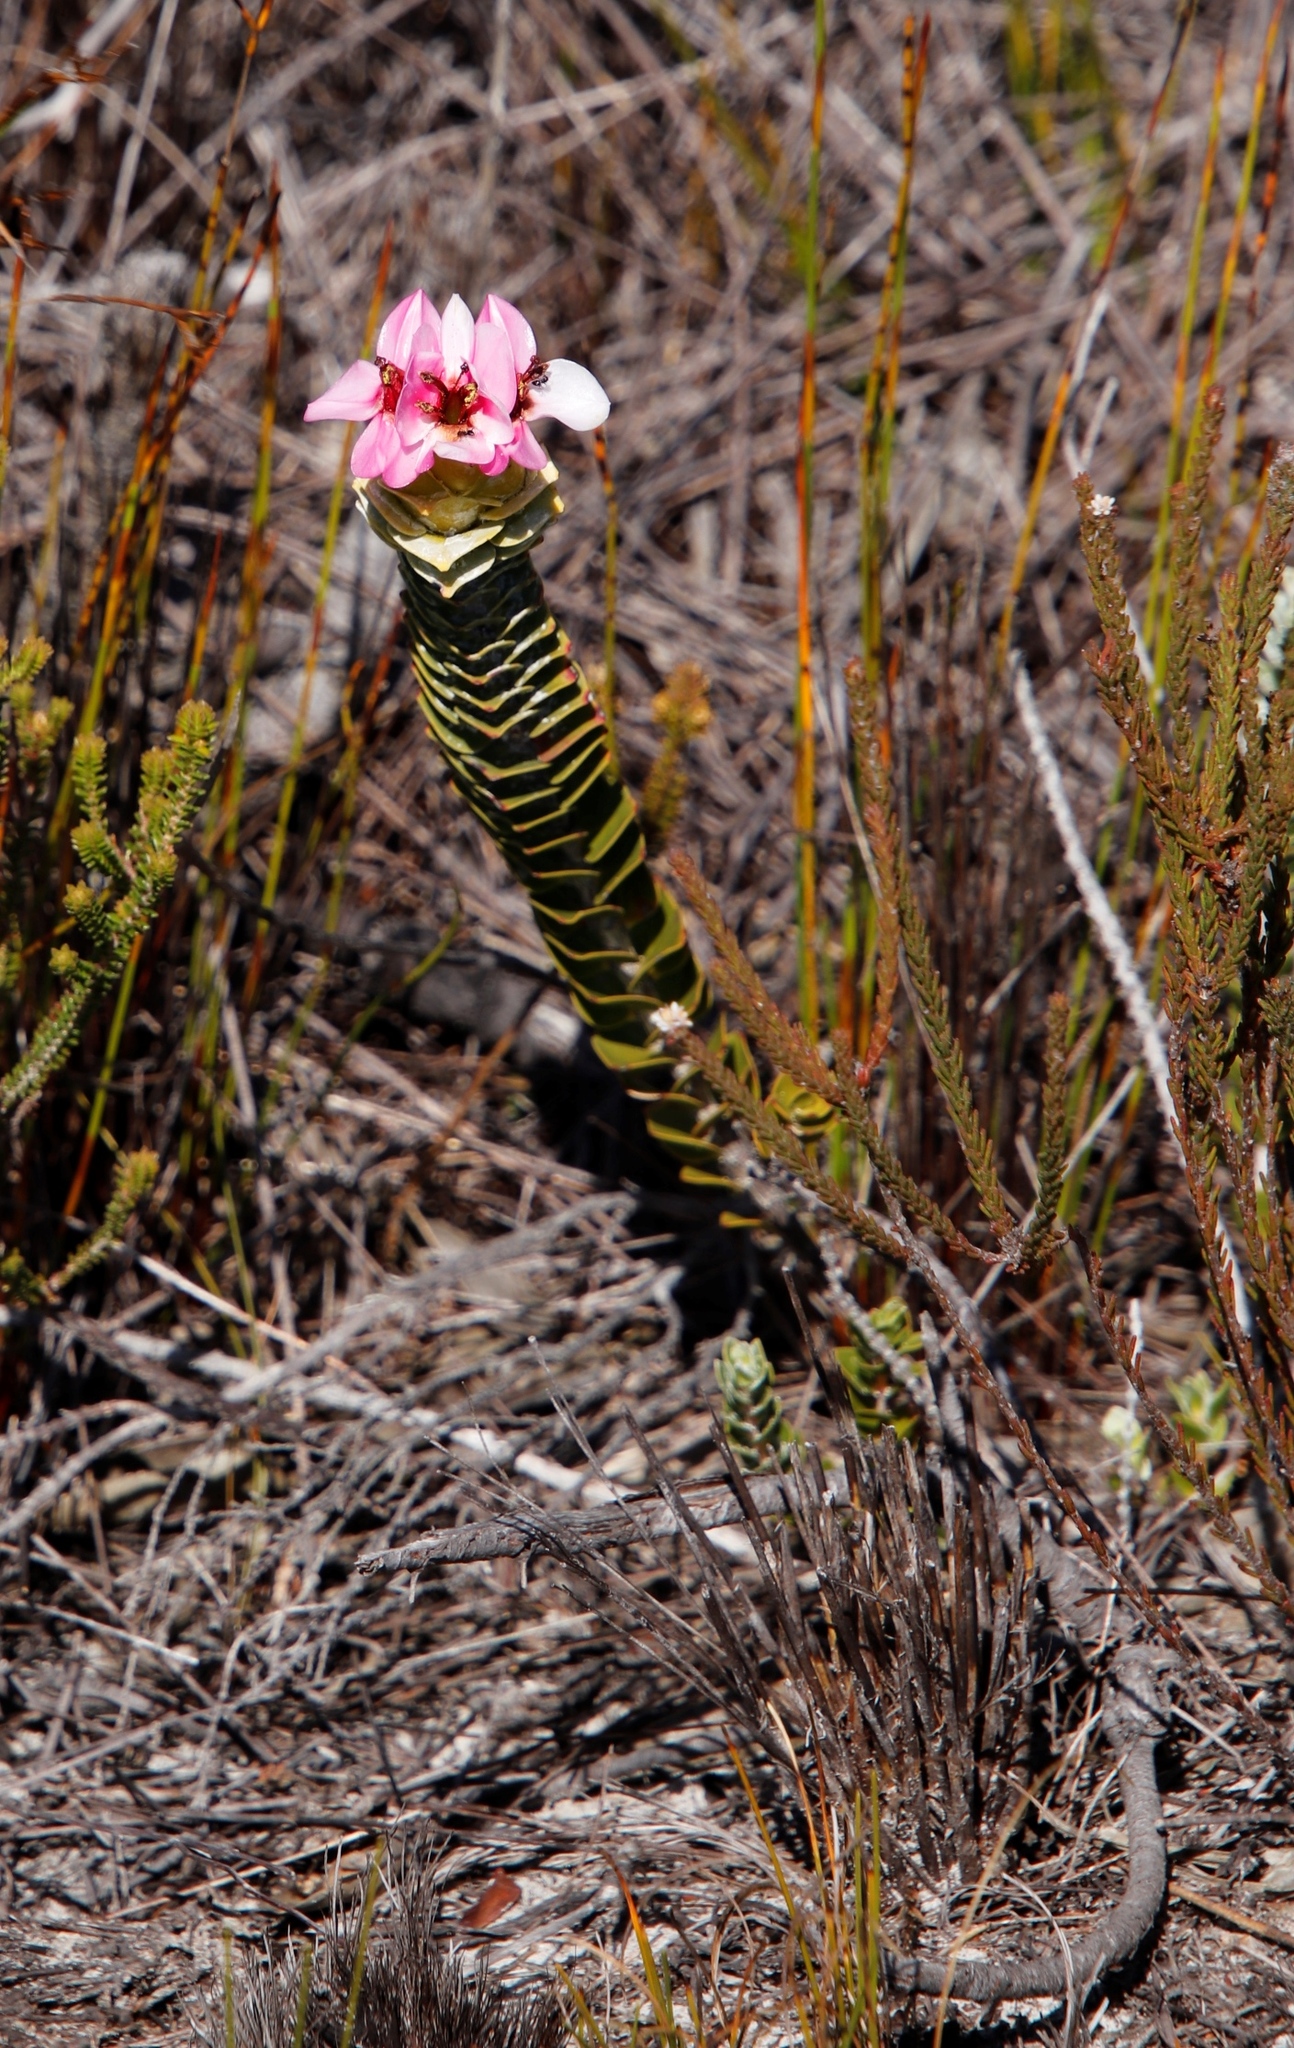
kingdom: Plantae
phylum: Tracheophyta
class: Magnoliopsida
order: Myrtales
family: Penaeaceae
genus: Saltera
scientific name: Saltera sarcocolla
